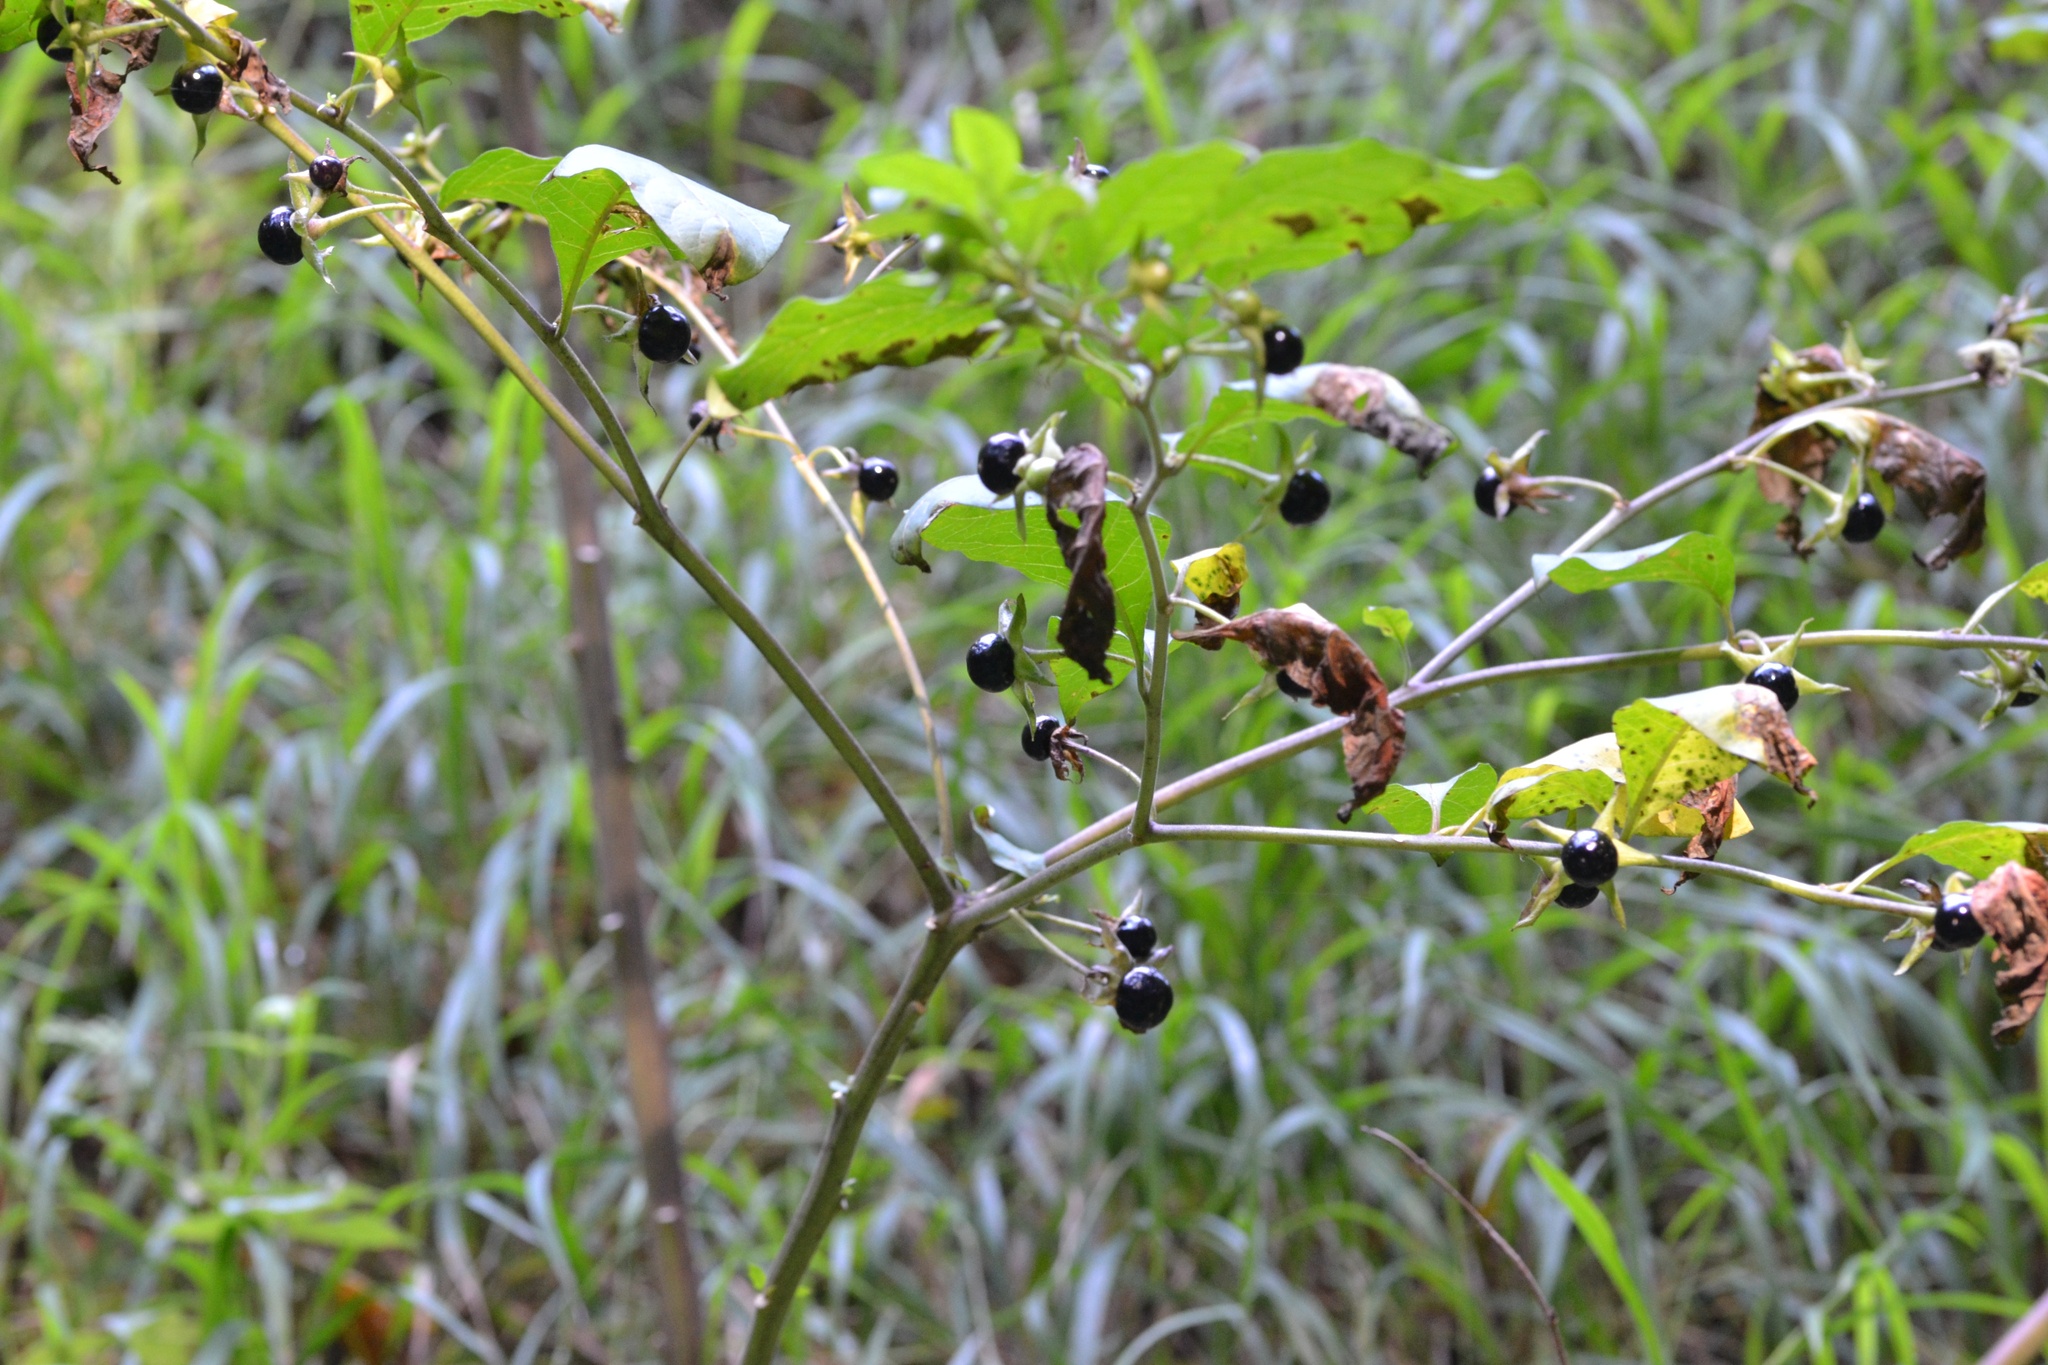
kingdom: Plantae
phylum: Tracheophyta
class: Magnoliopsida
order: Solanales
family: Solanaceae
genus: Atropa
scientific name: Atropa belladonna
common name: Deadly nightshade
